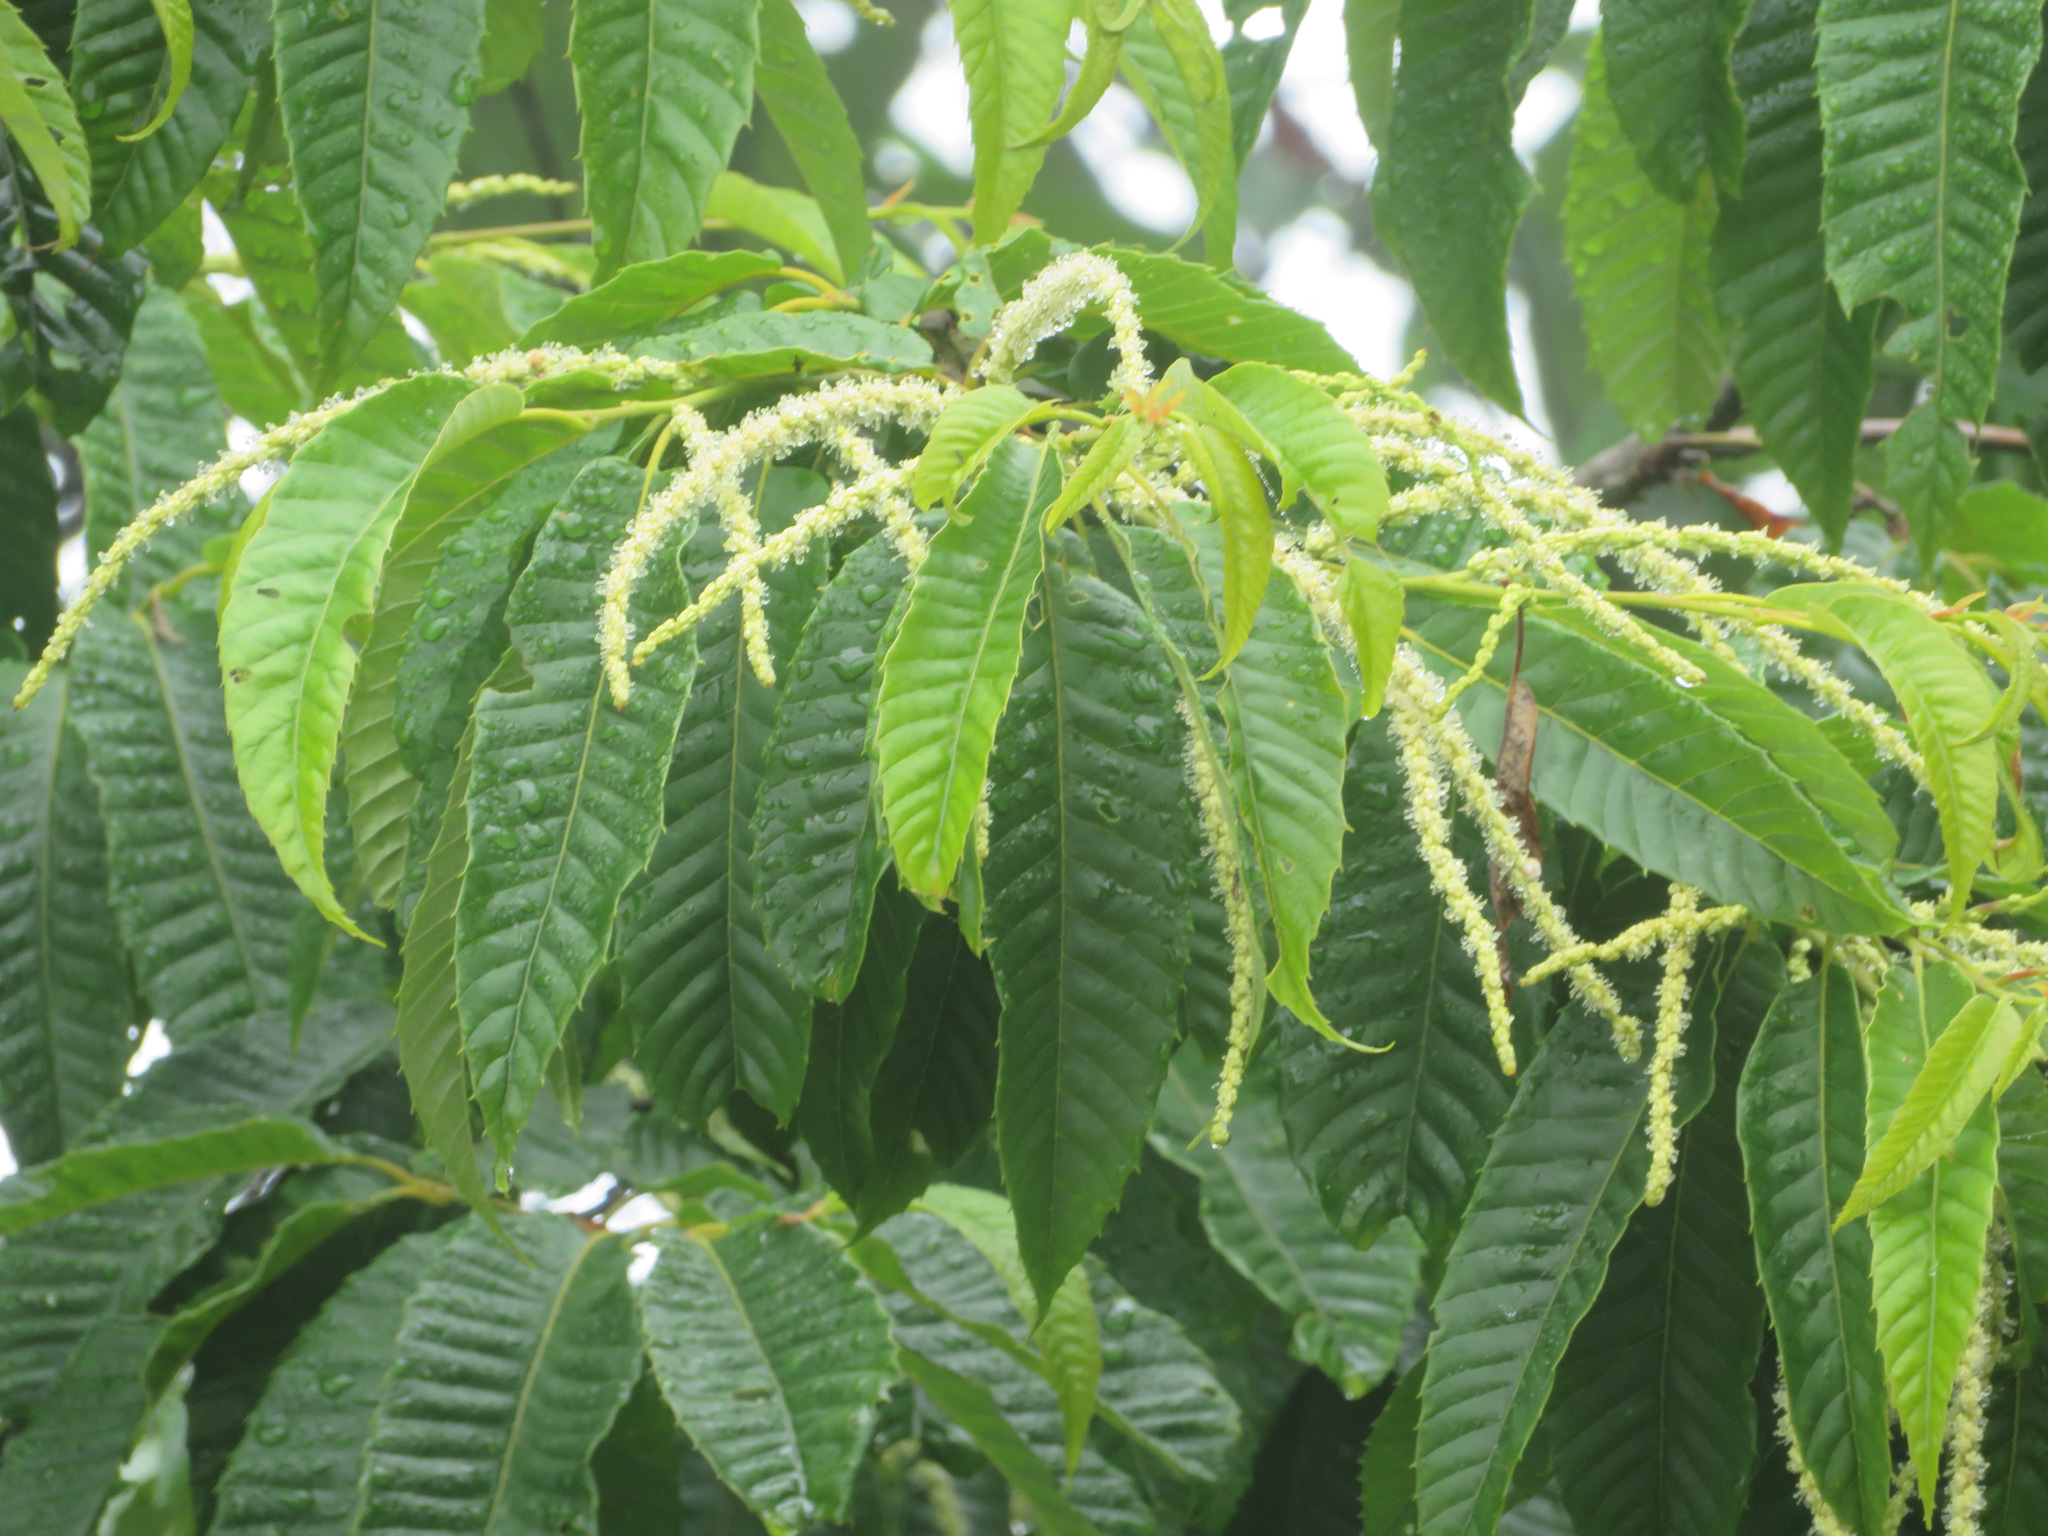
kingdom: Plantae
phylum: Tracheophyta
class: Magnoliopsida
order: Fagales
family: Fagaceae
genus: Castanea
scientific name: Castanea crenata
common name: Japanese chestnut
